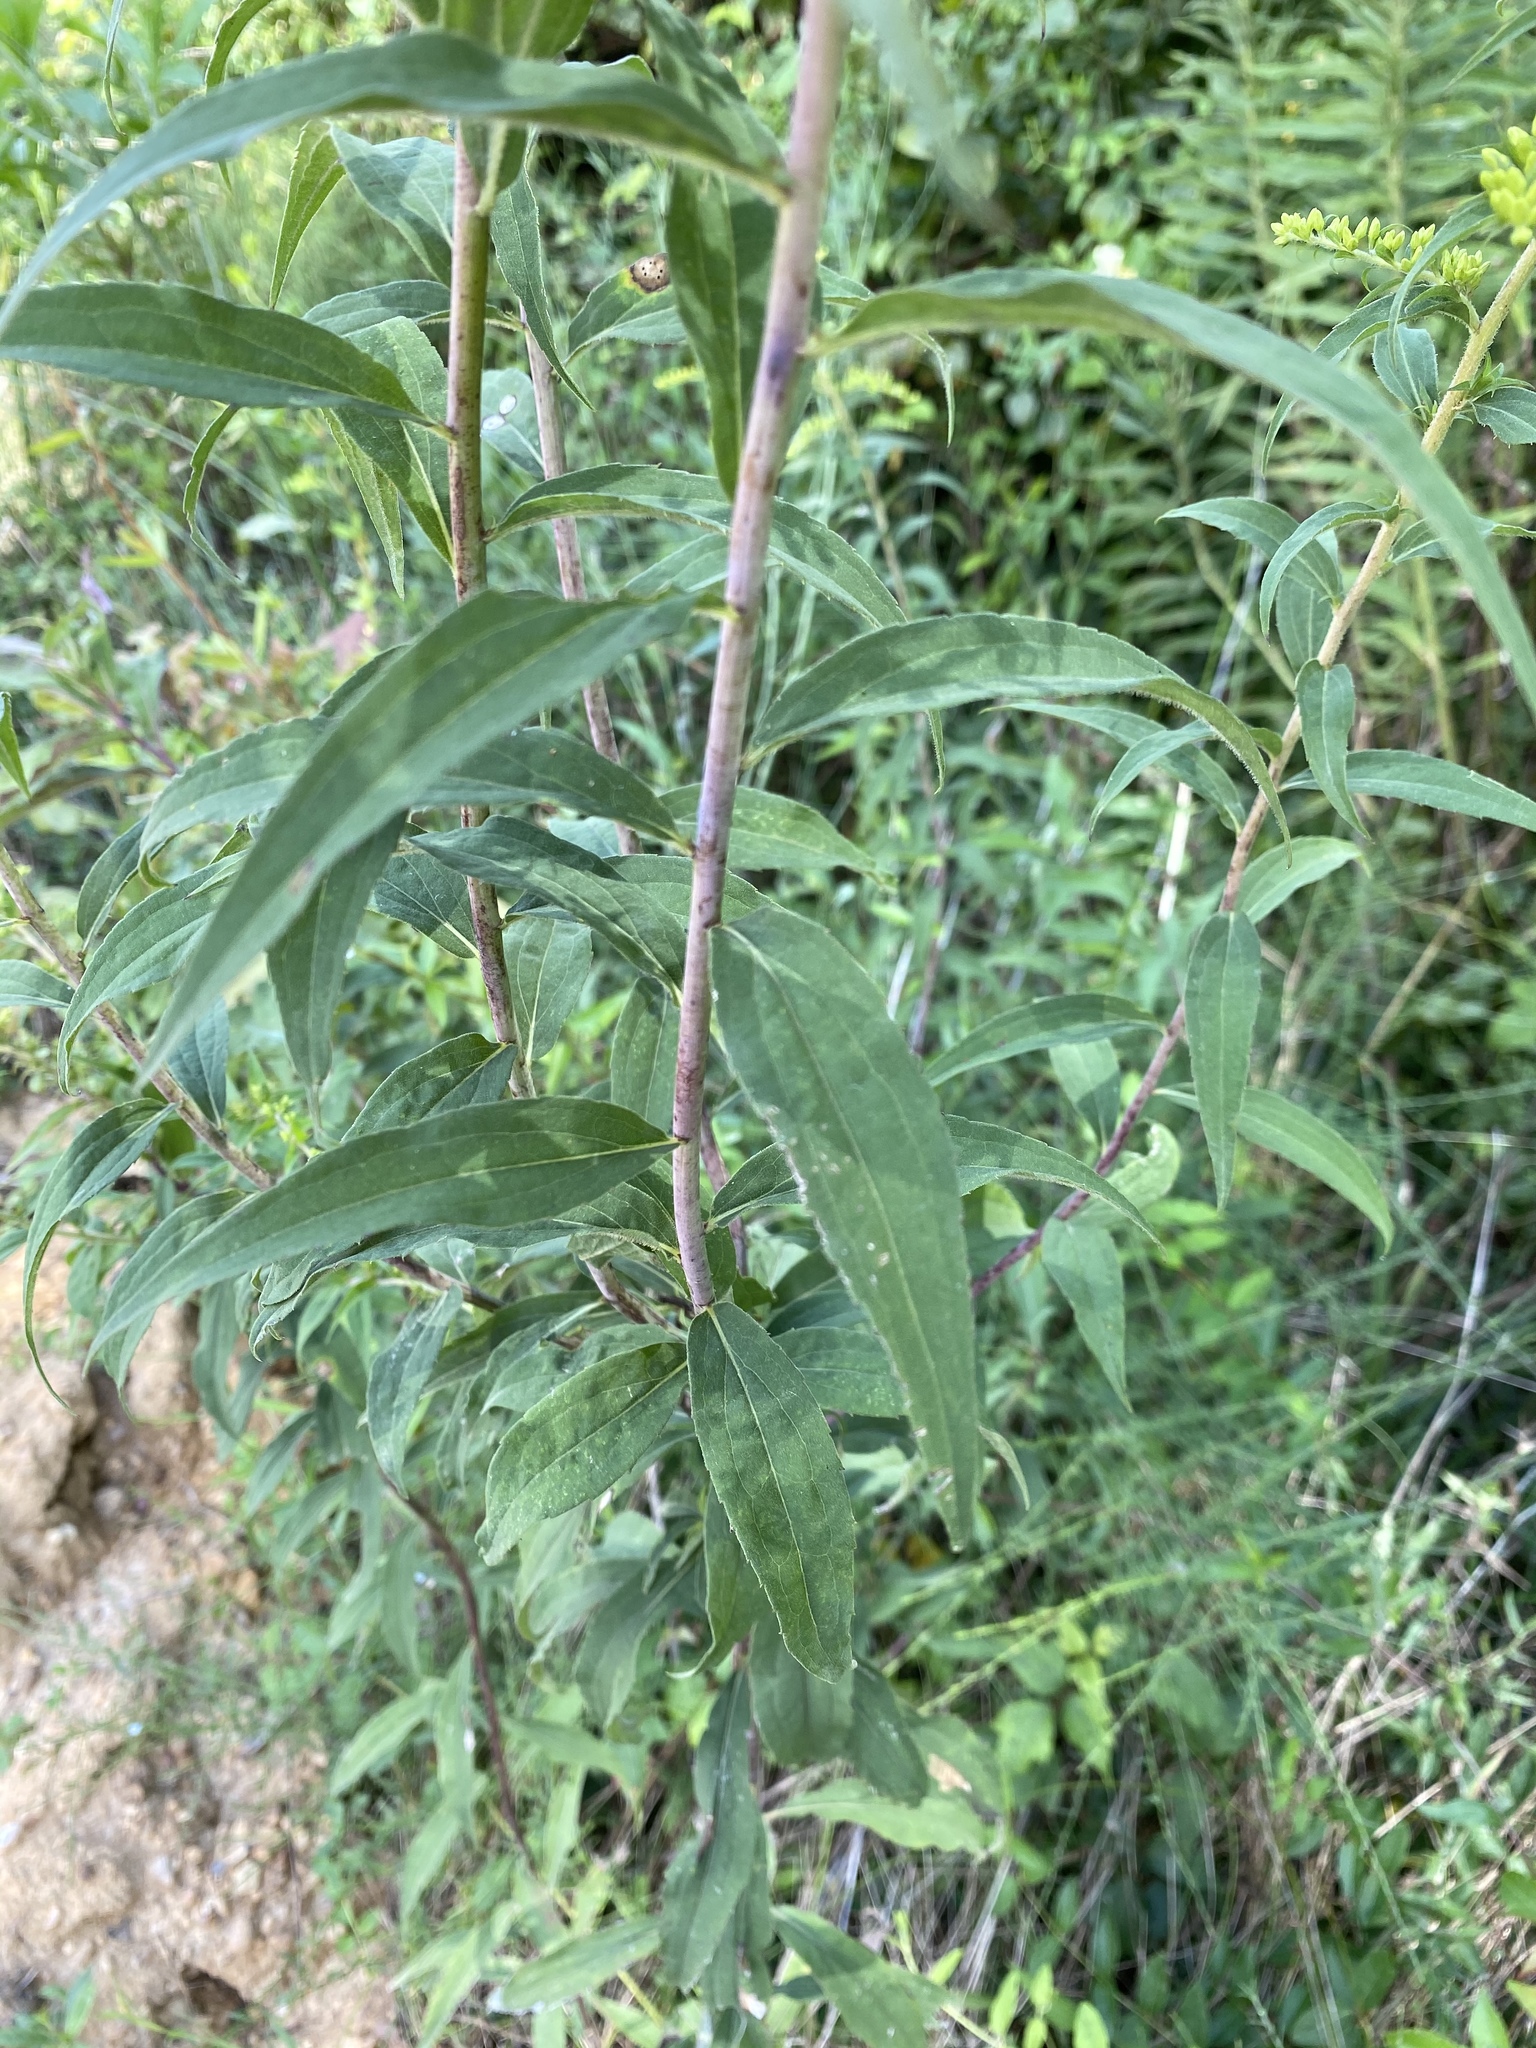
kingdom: Plantae
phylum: Tracheophyta
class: Magnoliopsida
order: Asterales
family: Asteraceae
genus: Solidago
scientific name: Solidago gigantea
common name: Giant goldenrod
